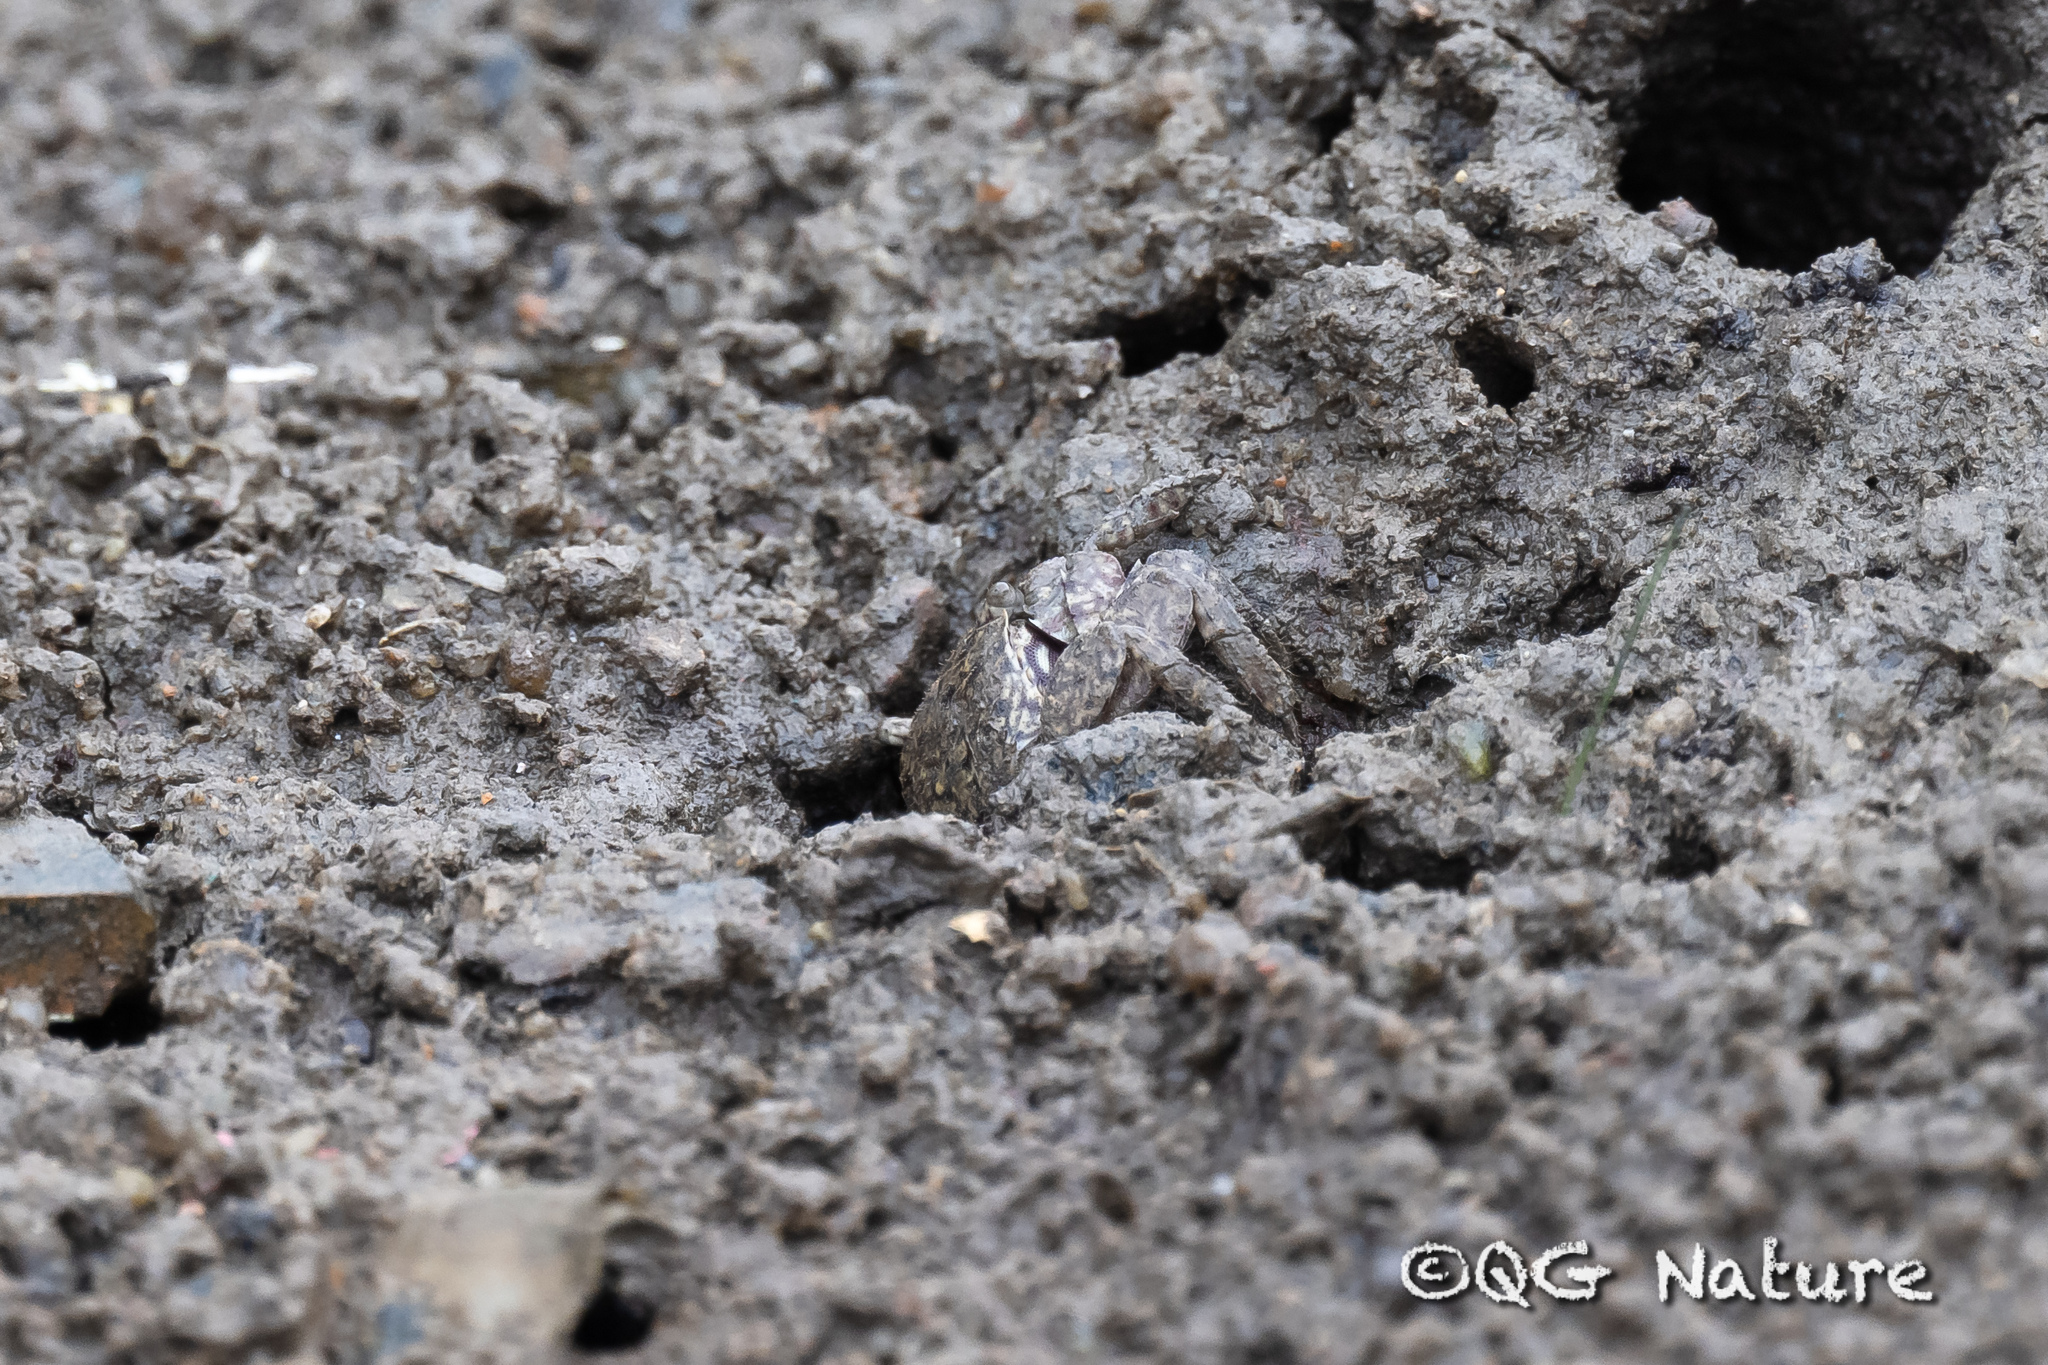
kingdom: Animalia
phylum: Arthropoda
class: Malacostraca
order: Decapoda
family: Sesarmidae
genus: Parasesarma
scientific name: Parasesarma affine
